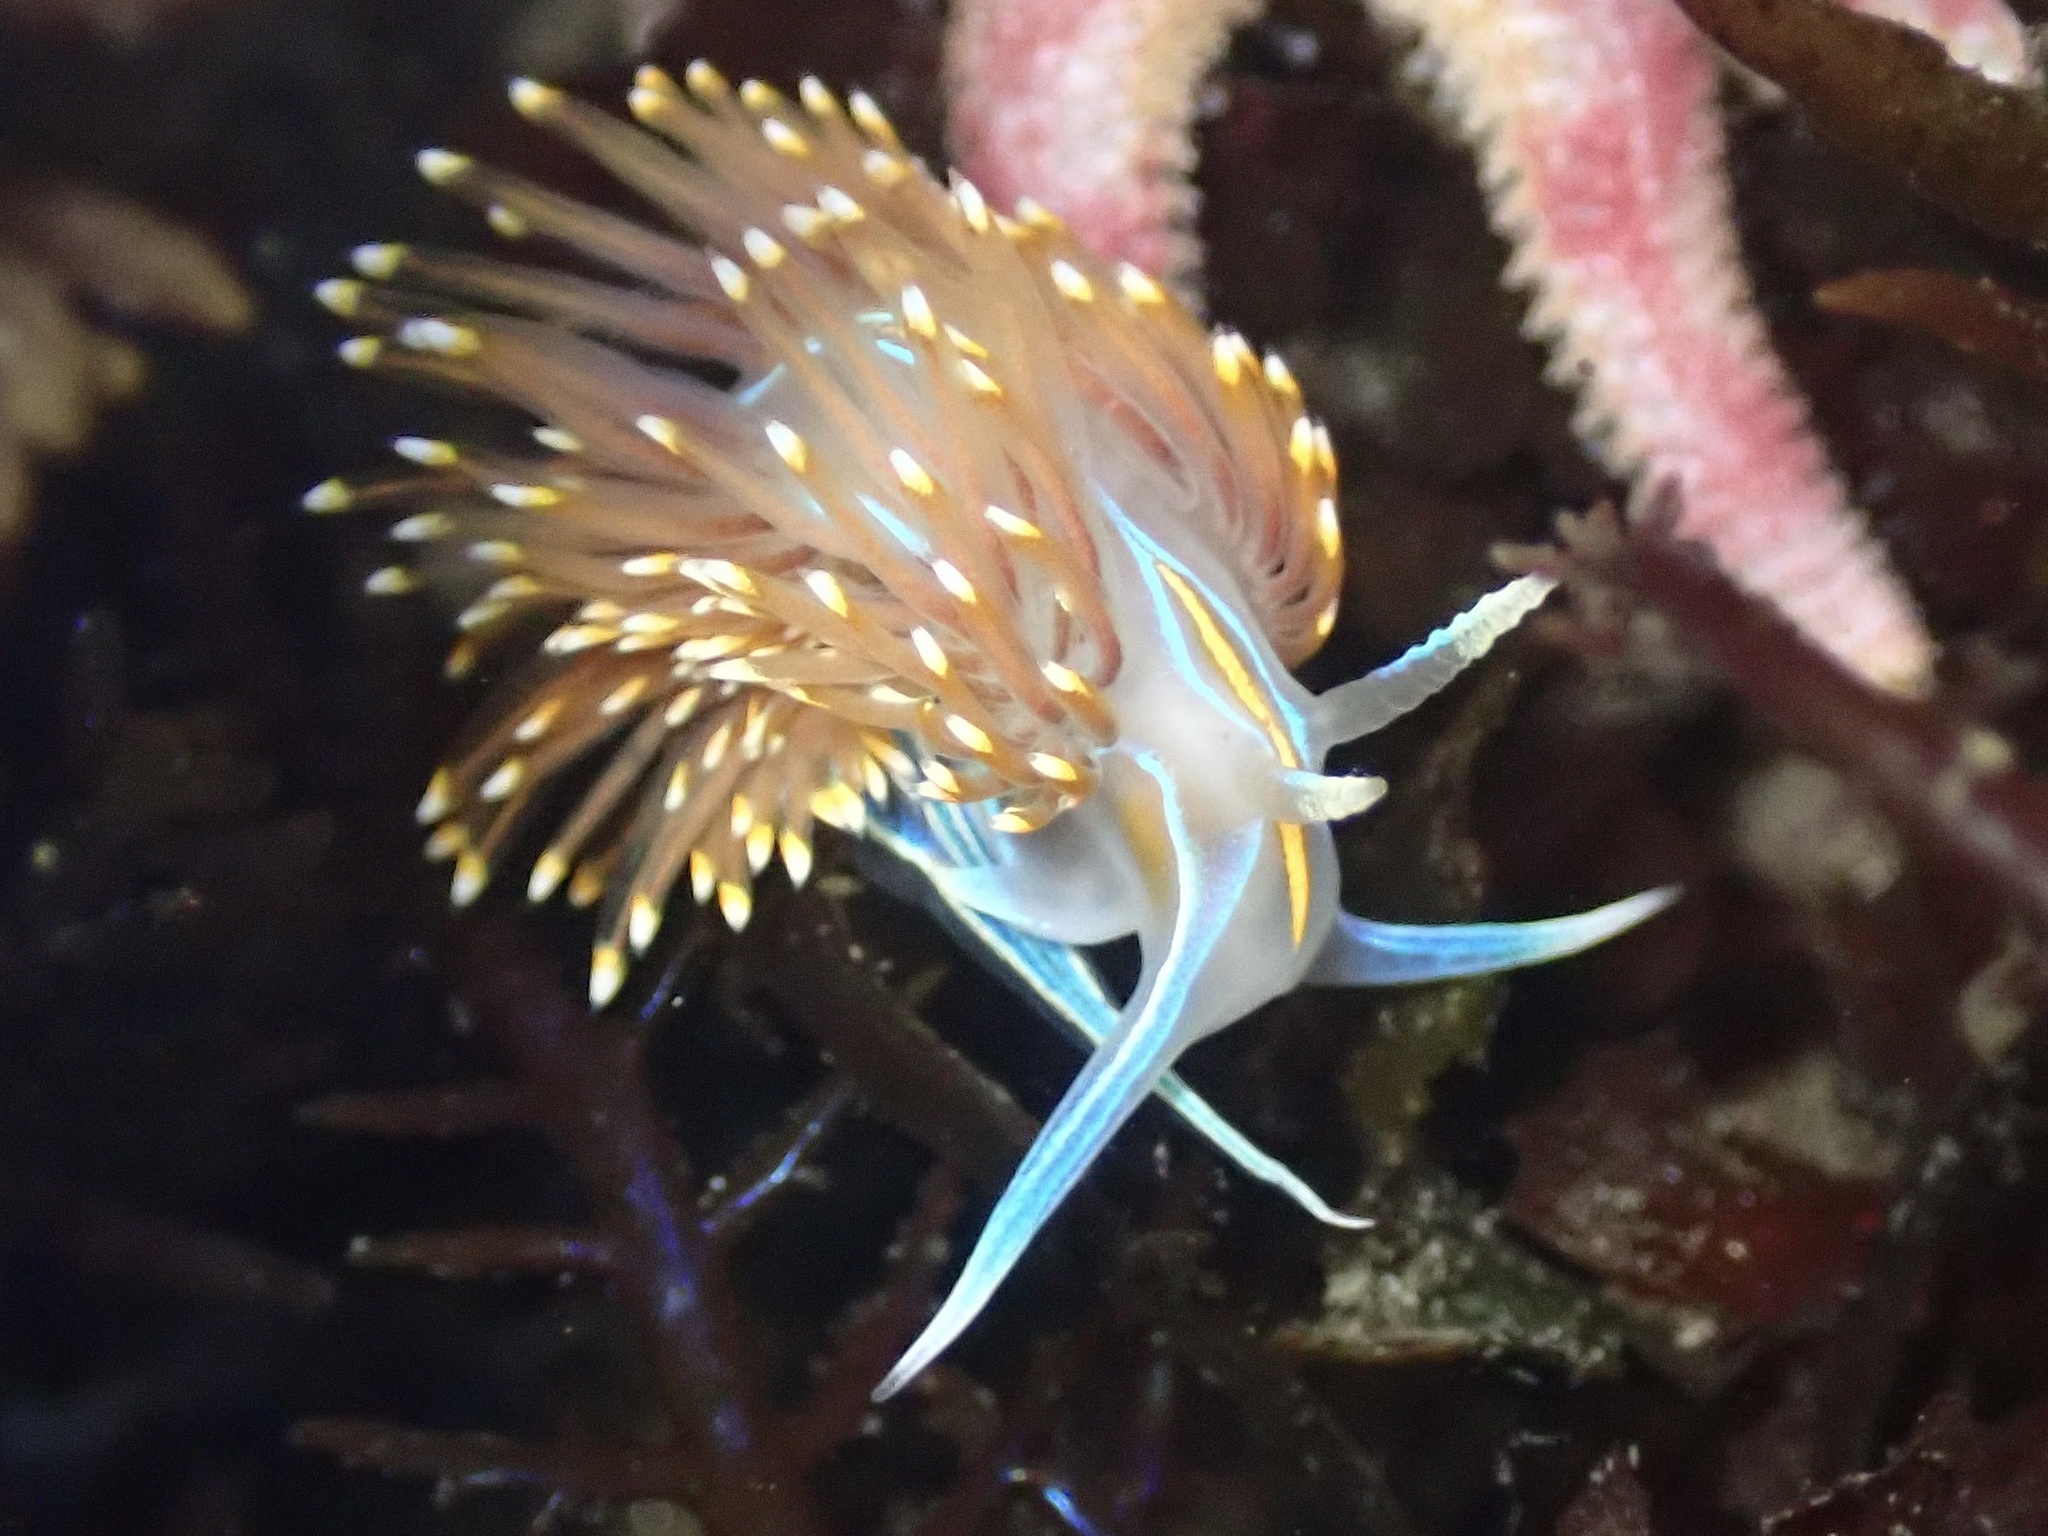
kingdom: Animalia
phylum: Mollusca
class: Gastropoda
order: Nudibranchia
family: Myrrhinidae
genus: Hermissenda
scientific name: Hermissenda opalescens
